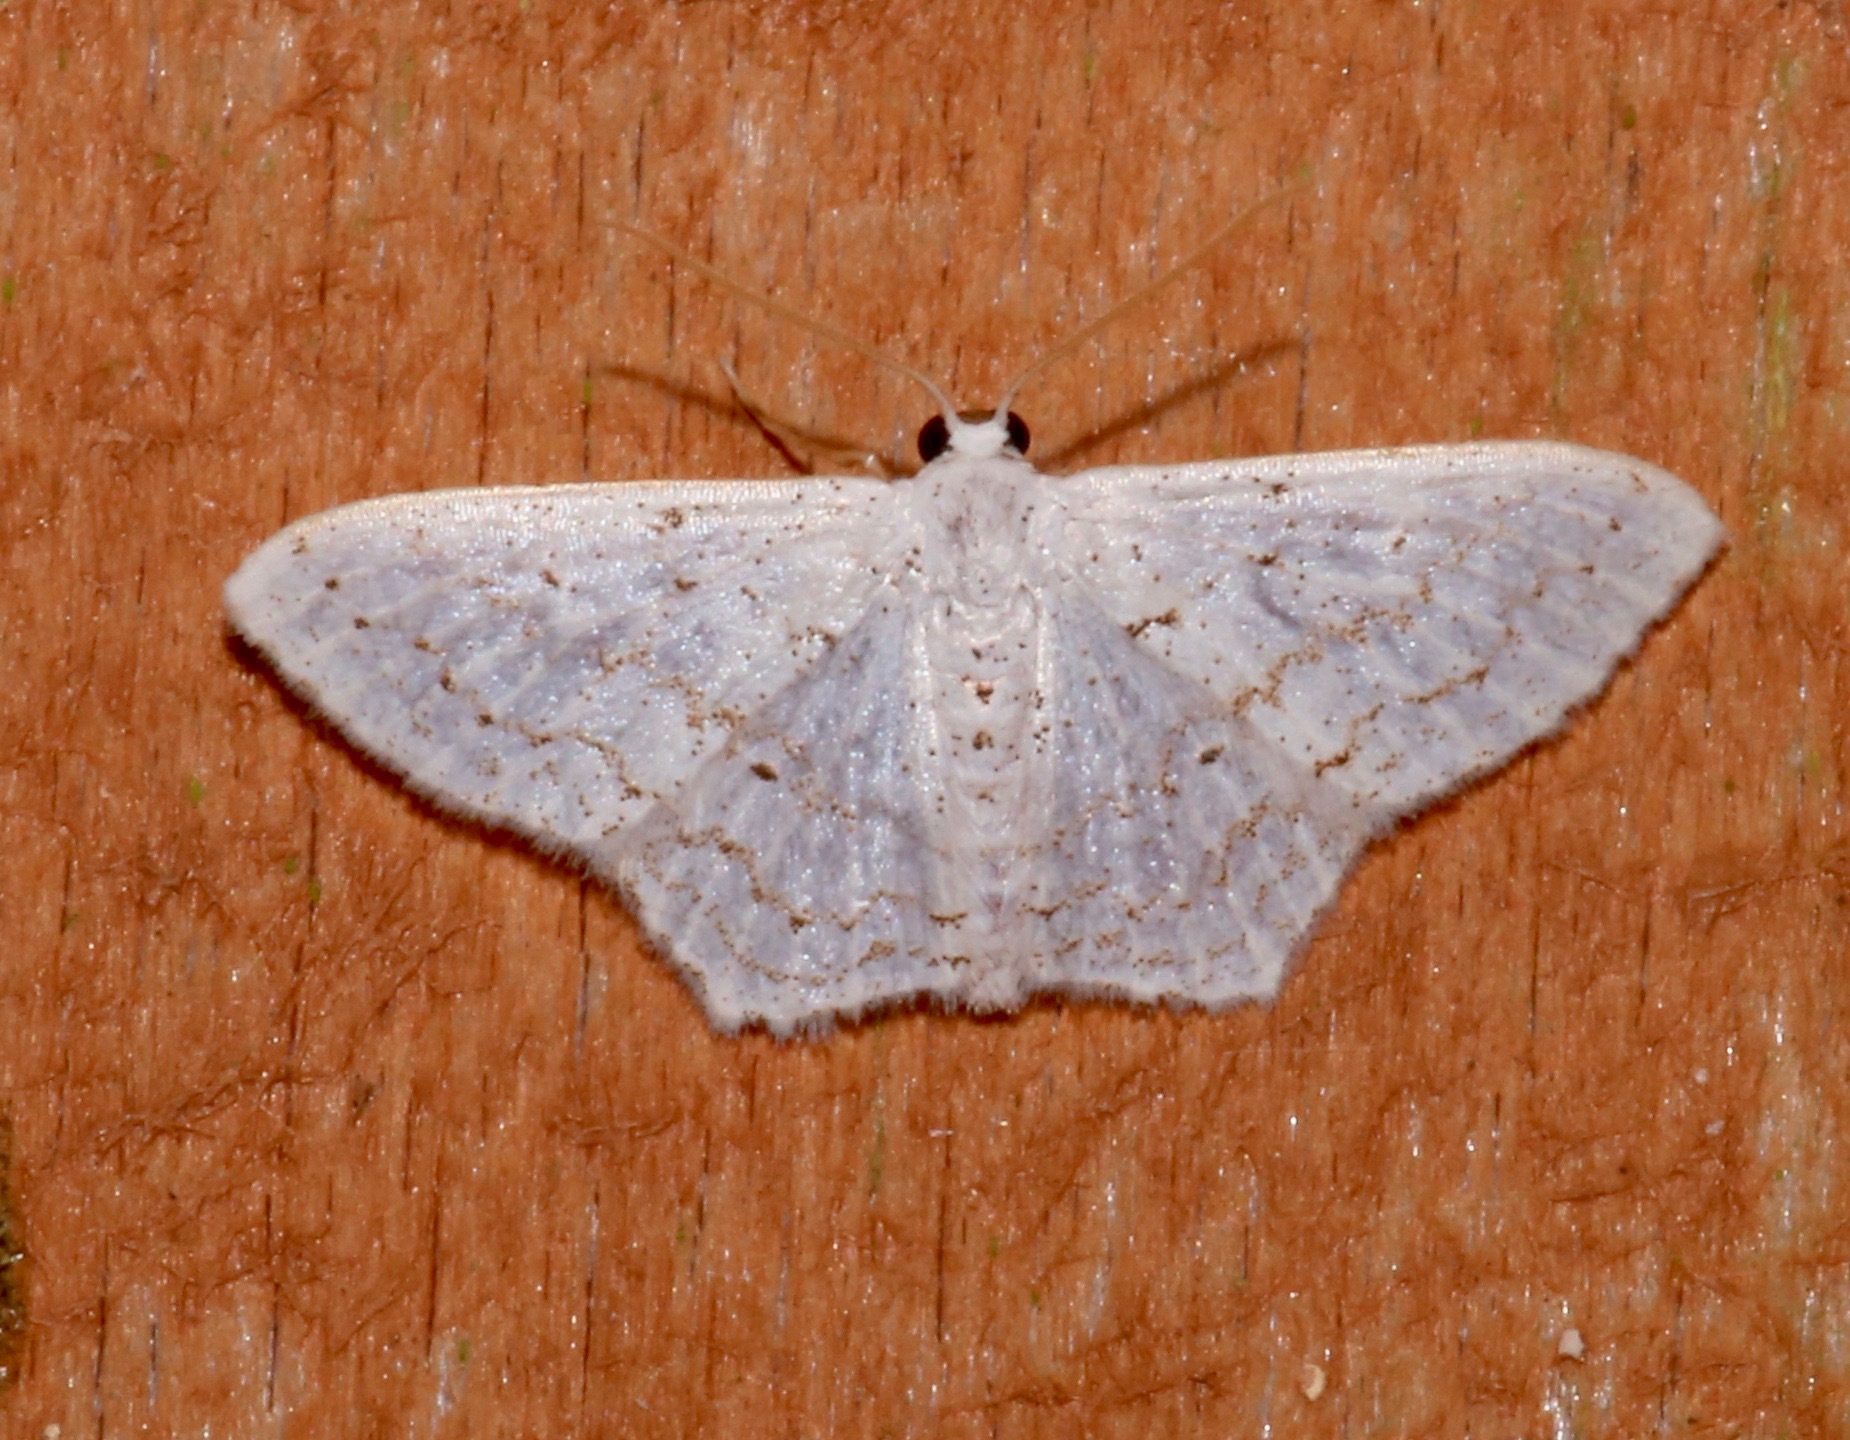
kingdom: Animalia
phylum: Arthropoda
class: Insecta
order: Lepidoptera
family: Geometridae
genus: Idaea
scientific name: Idaea tacturata
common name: Dot-lined wave
